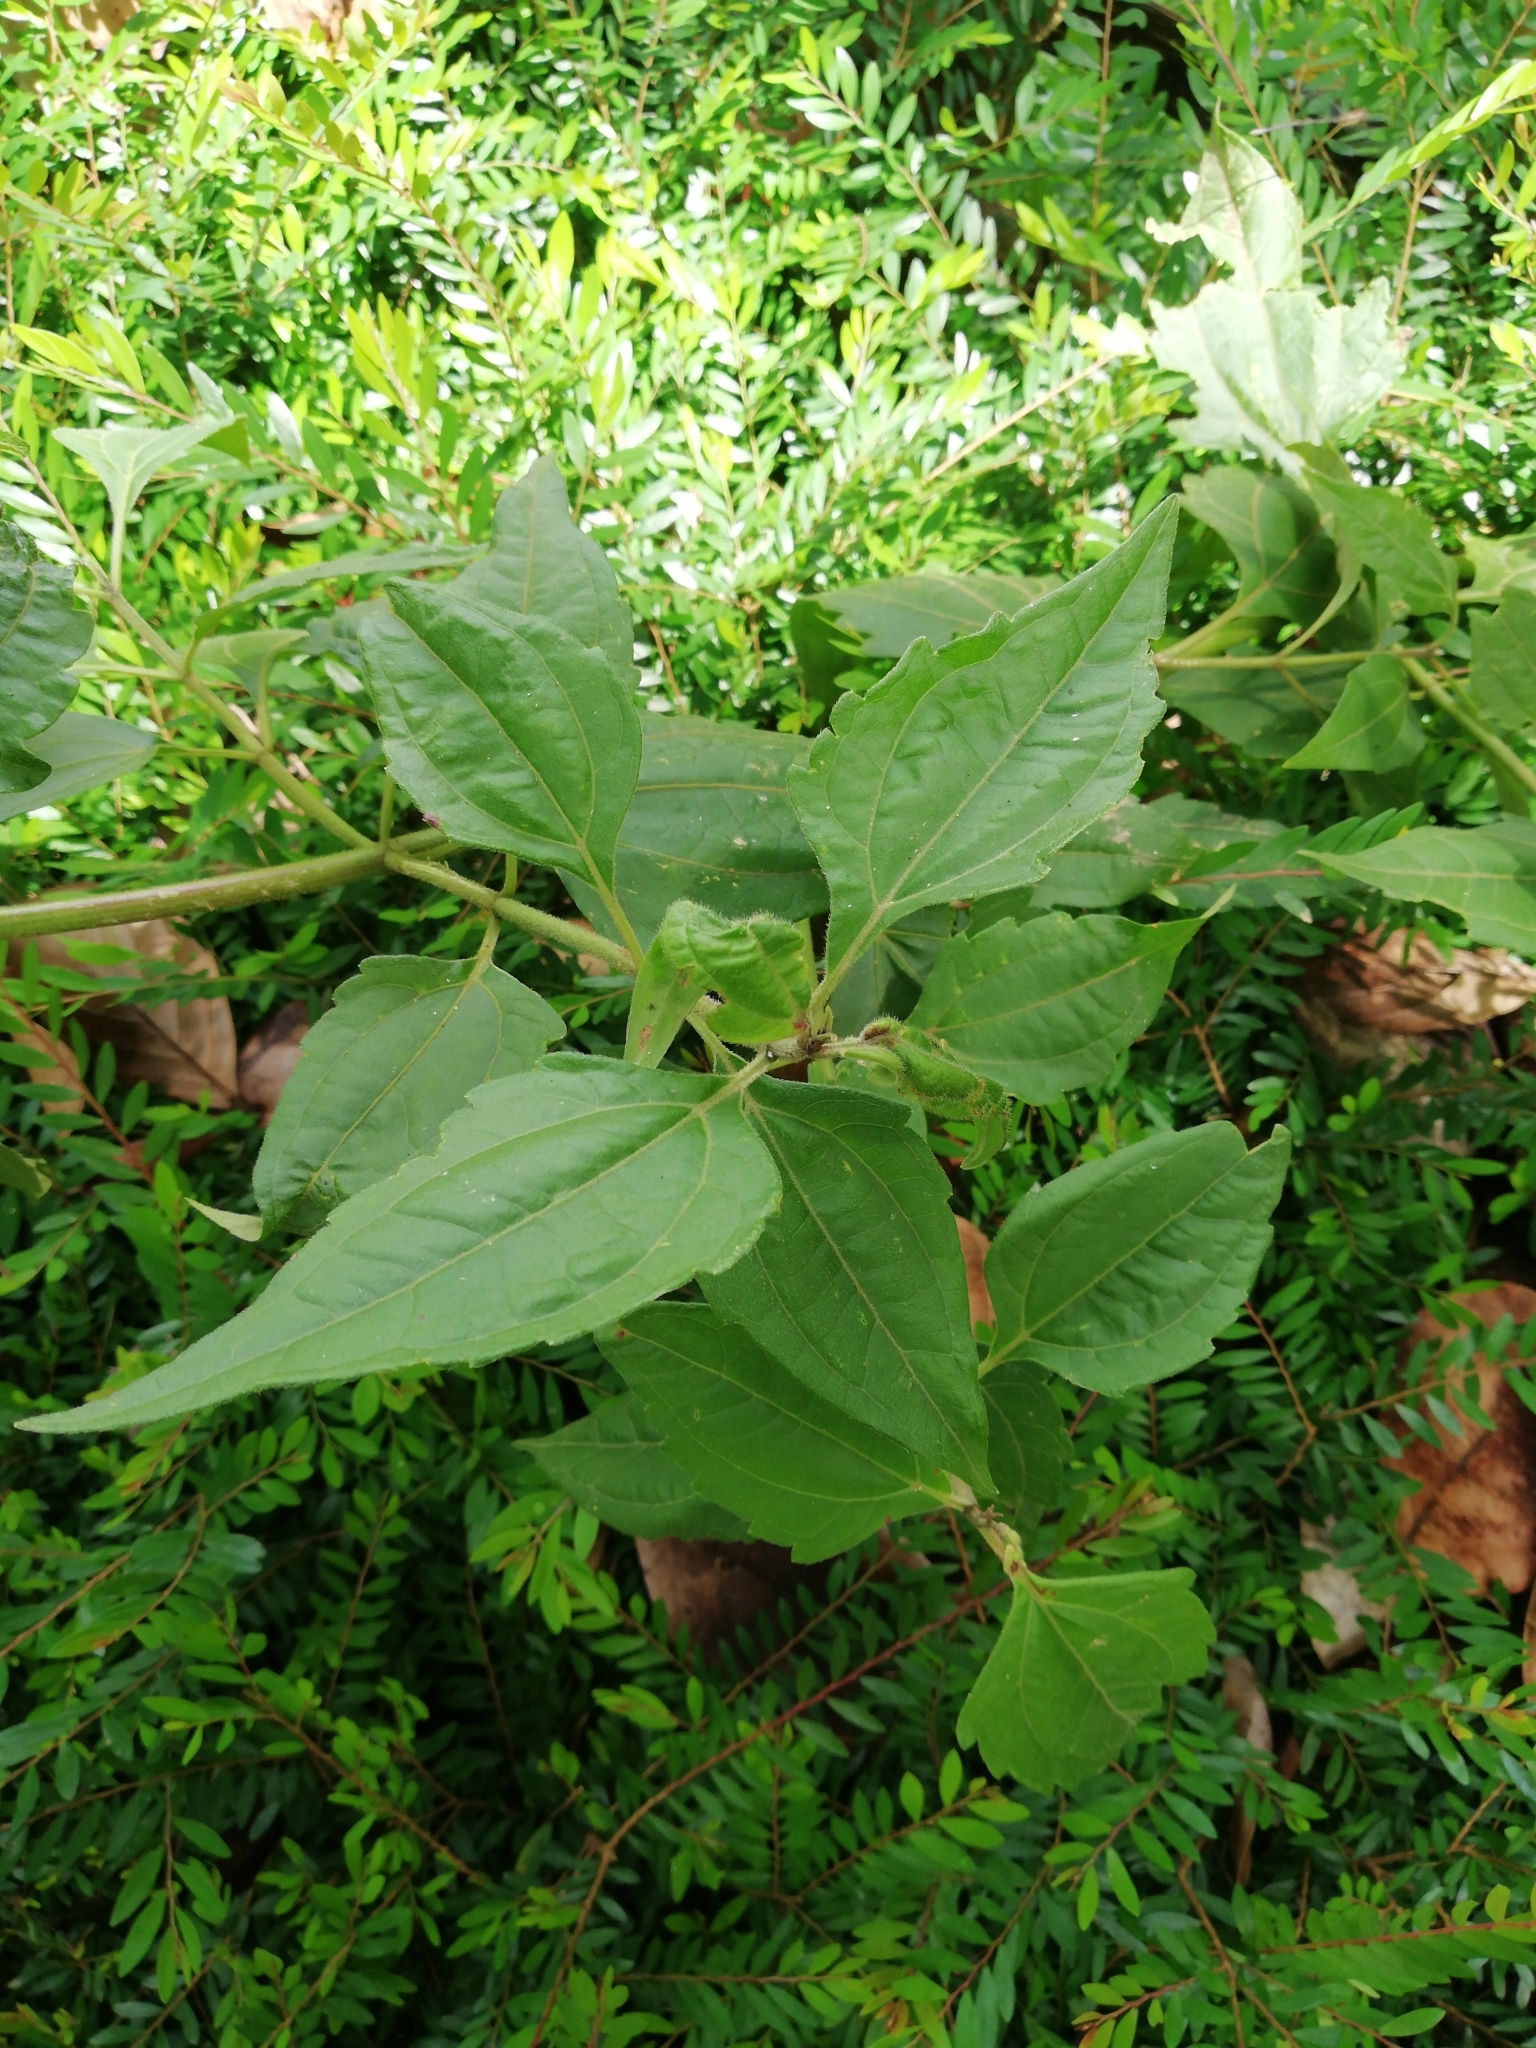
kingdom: Plantae
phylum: Tracheophyta
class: Magnoliopsida
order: Asterales
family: Asteraceae
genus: Chromolaena
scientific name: Chromolaena odorata
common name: Siamweed
